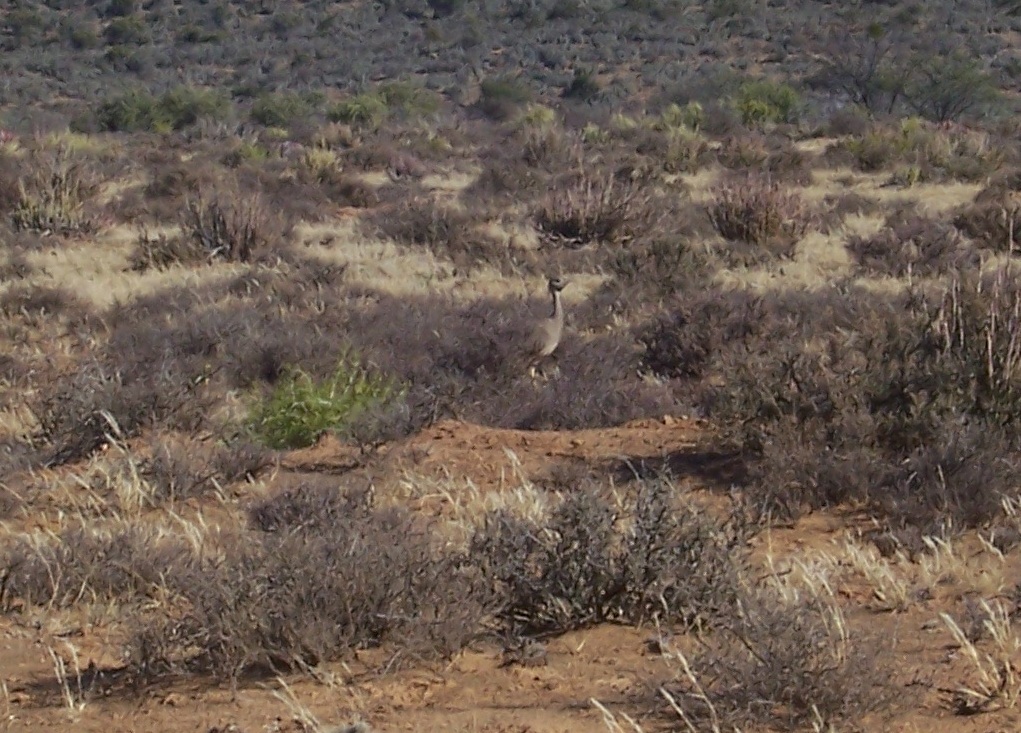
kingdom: Animalia
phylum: Chordata
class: Aves
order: Otidiformes
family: Otididae
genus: Eupodotis
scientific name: Eupodotis vigorsii
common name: Karoo korhaan
